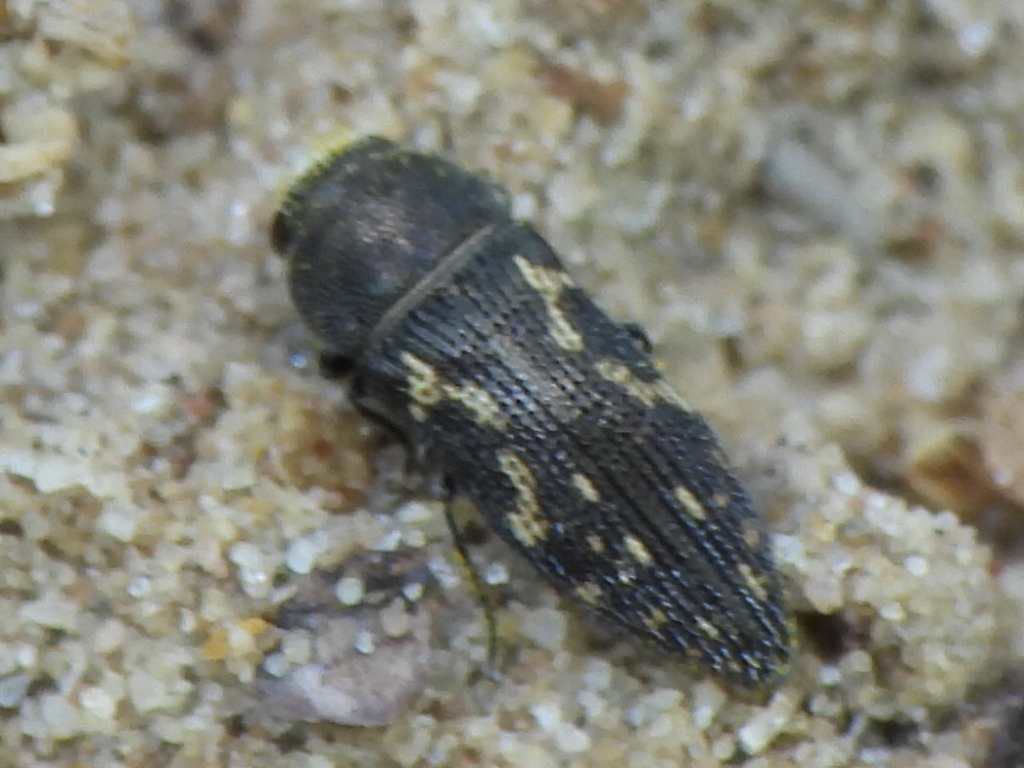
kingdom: Animalia
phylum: Arthropoda
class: Insecta
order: Coleoptera
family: Buprestidae
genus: Acmaeodera
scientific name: Acmaeodera neglecta
